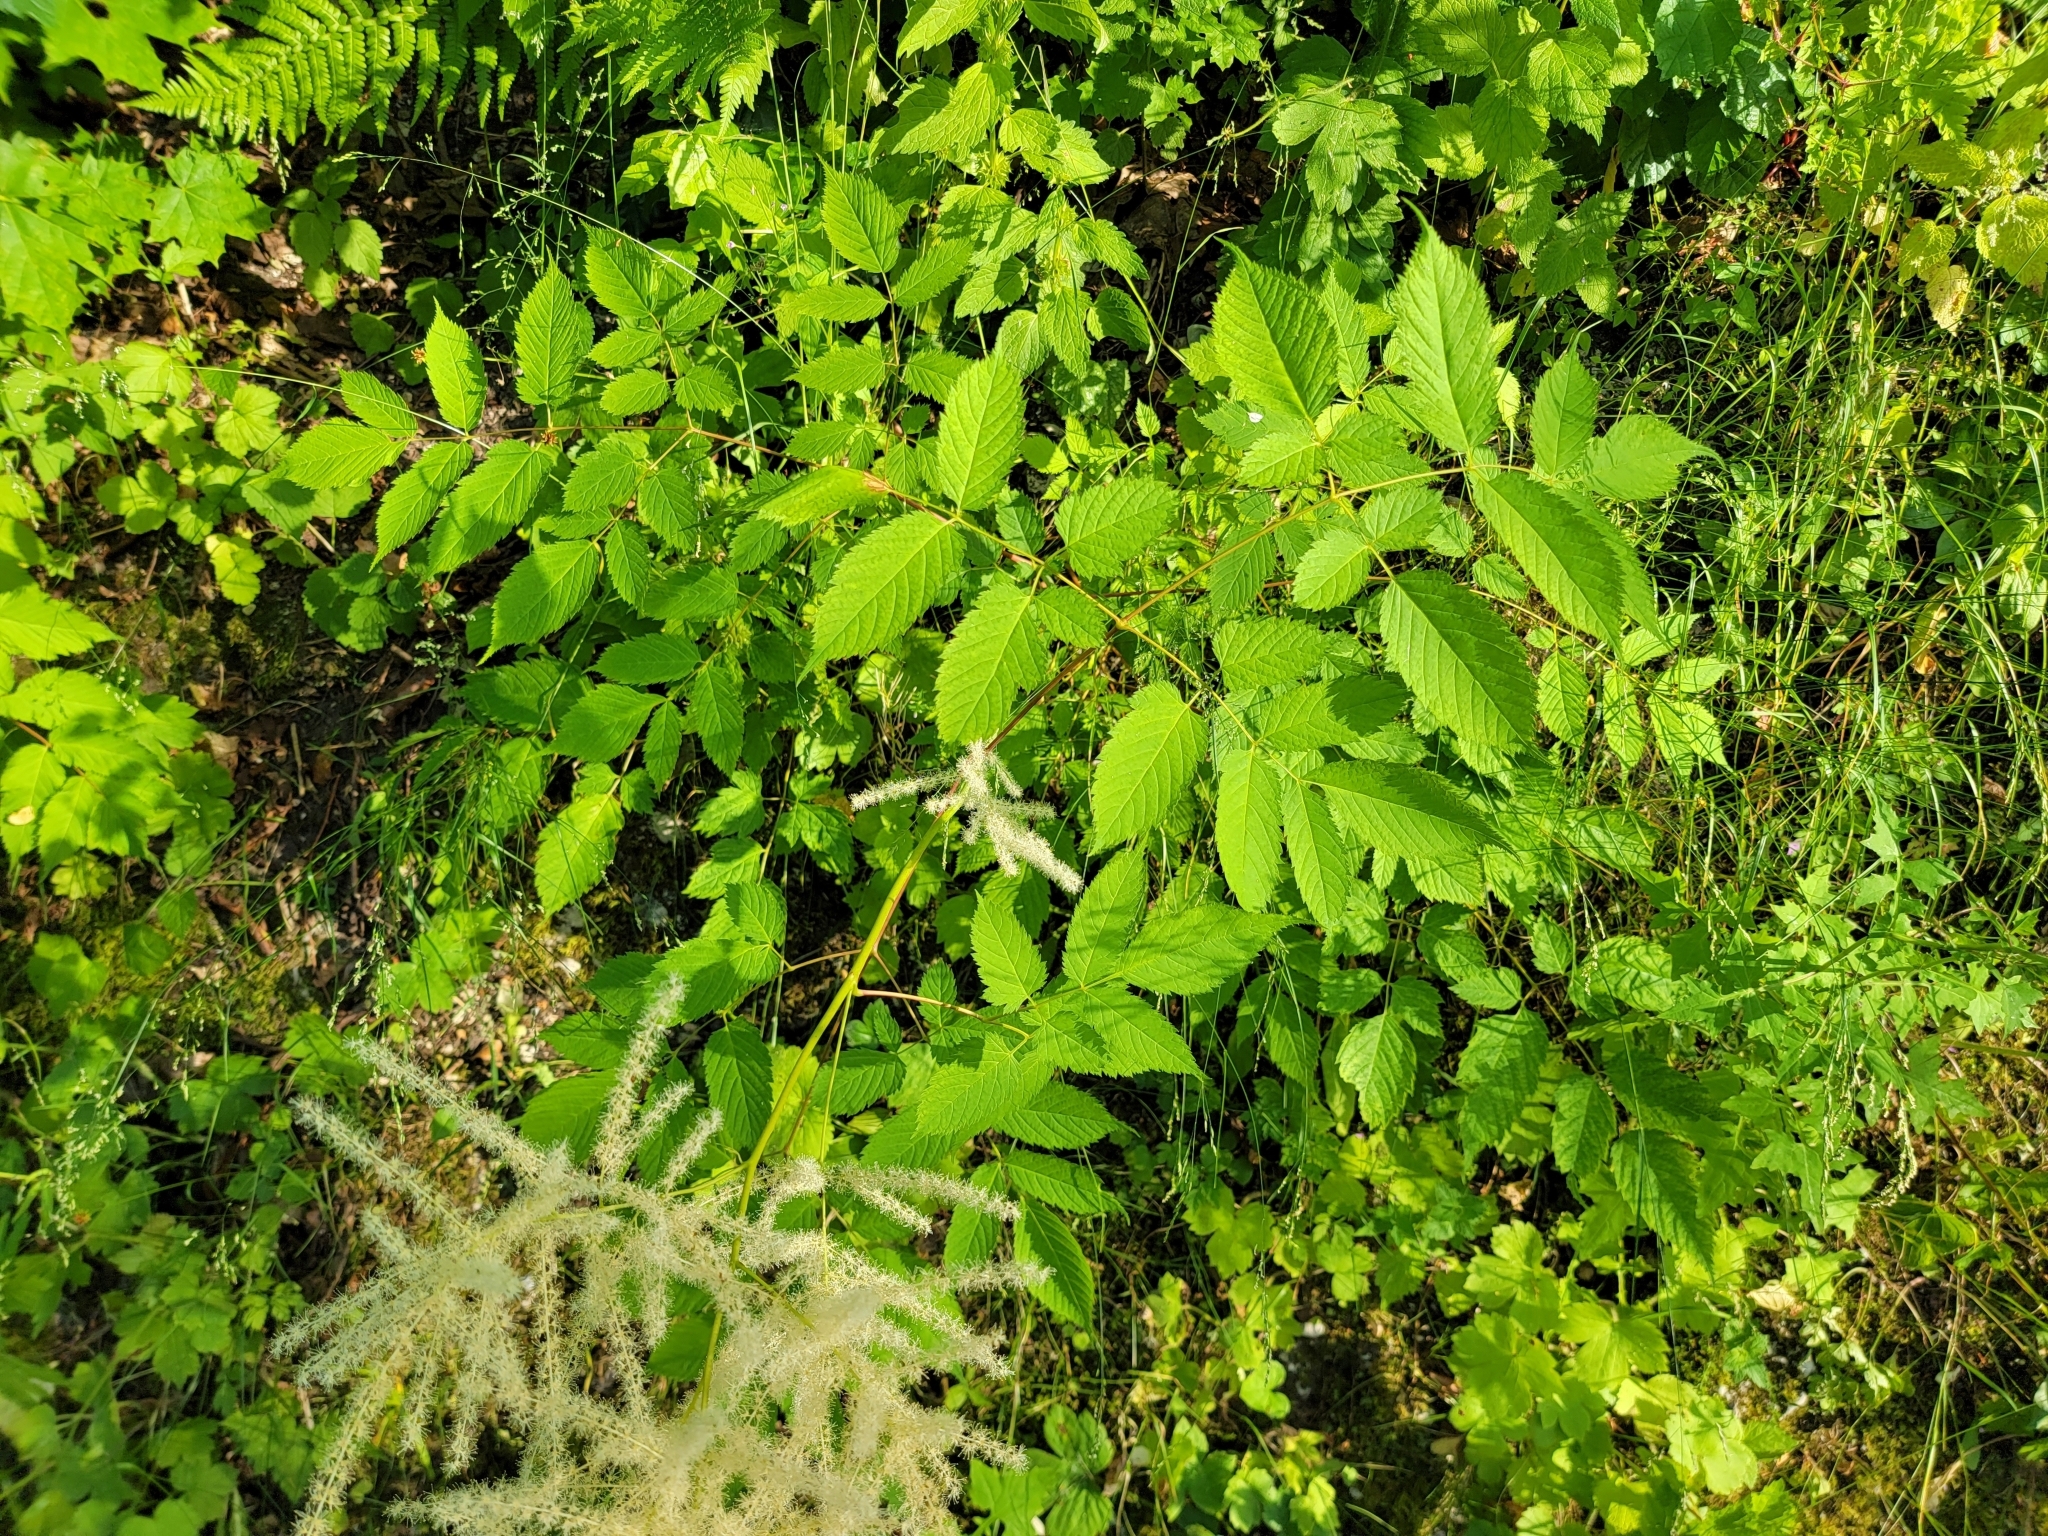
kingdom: Plantae
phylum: Tracheophyta
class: Magnoliopsida
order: Rosales
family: Rosaceae
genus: Aruncus
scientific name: Aruncus dioicus
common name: Buck's-beard
